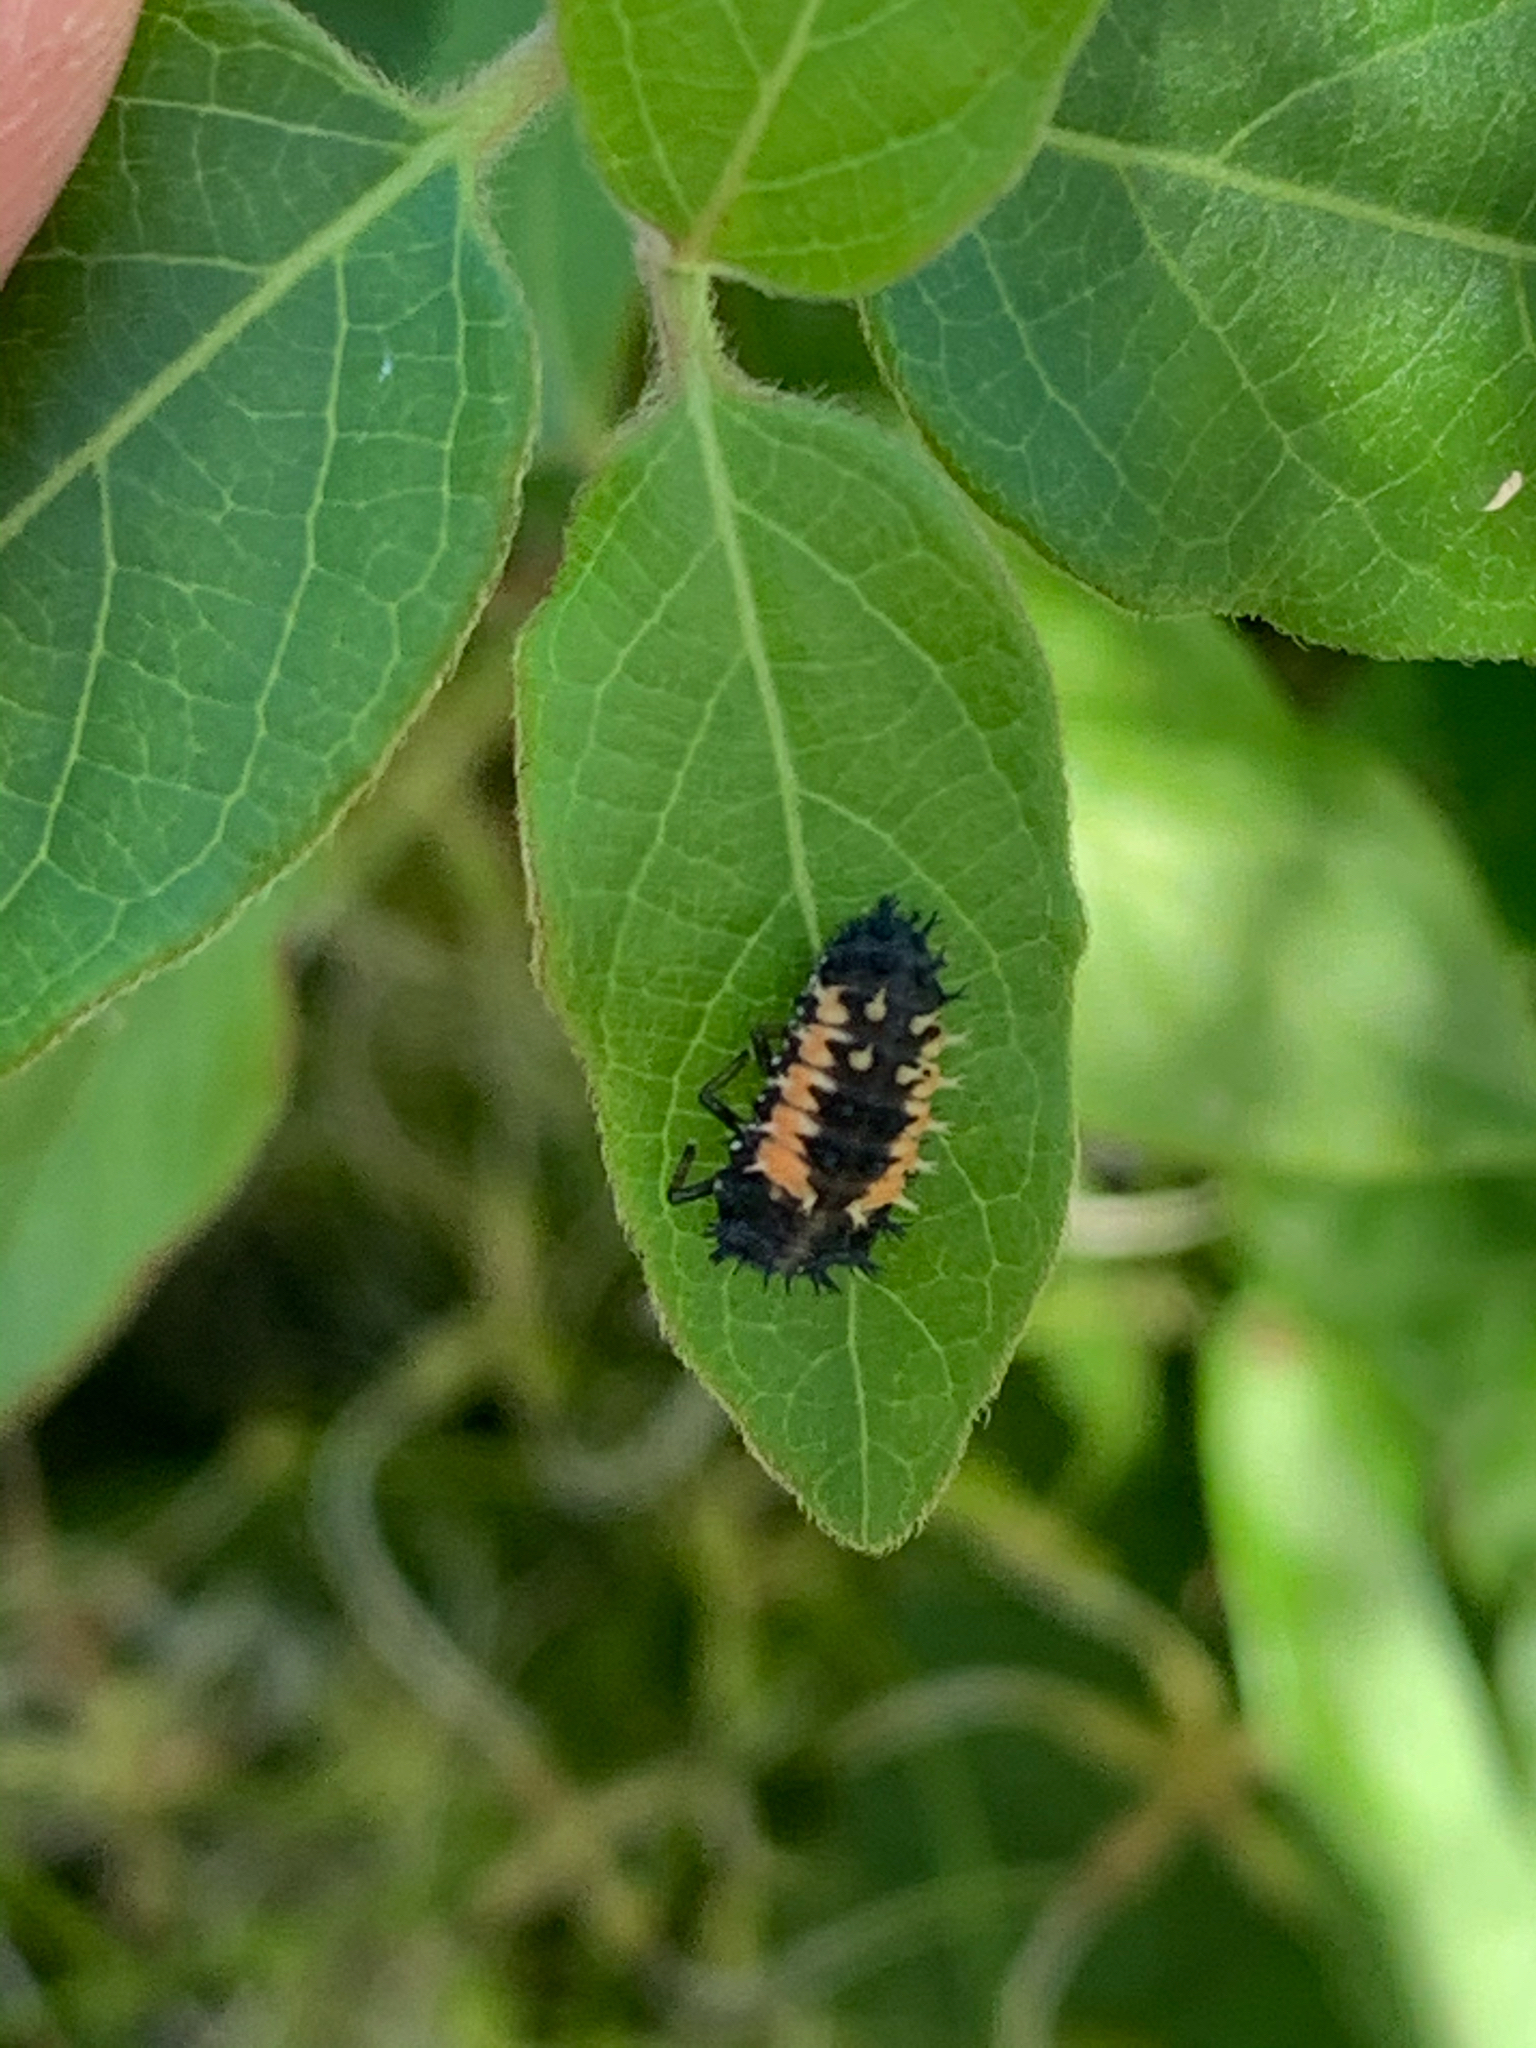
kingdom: Animalia
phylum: Arthropoda
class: Insecta
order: Coleoptera
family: Coccinellidae
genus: Harmonia
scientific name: Harmonia axyridis
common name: Harlequin ladybird
